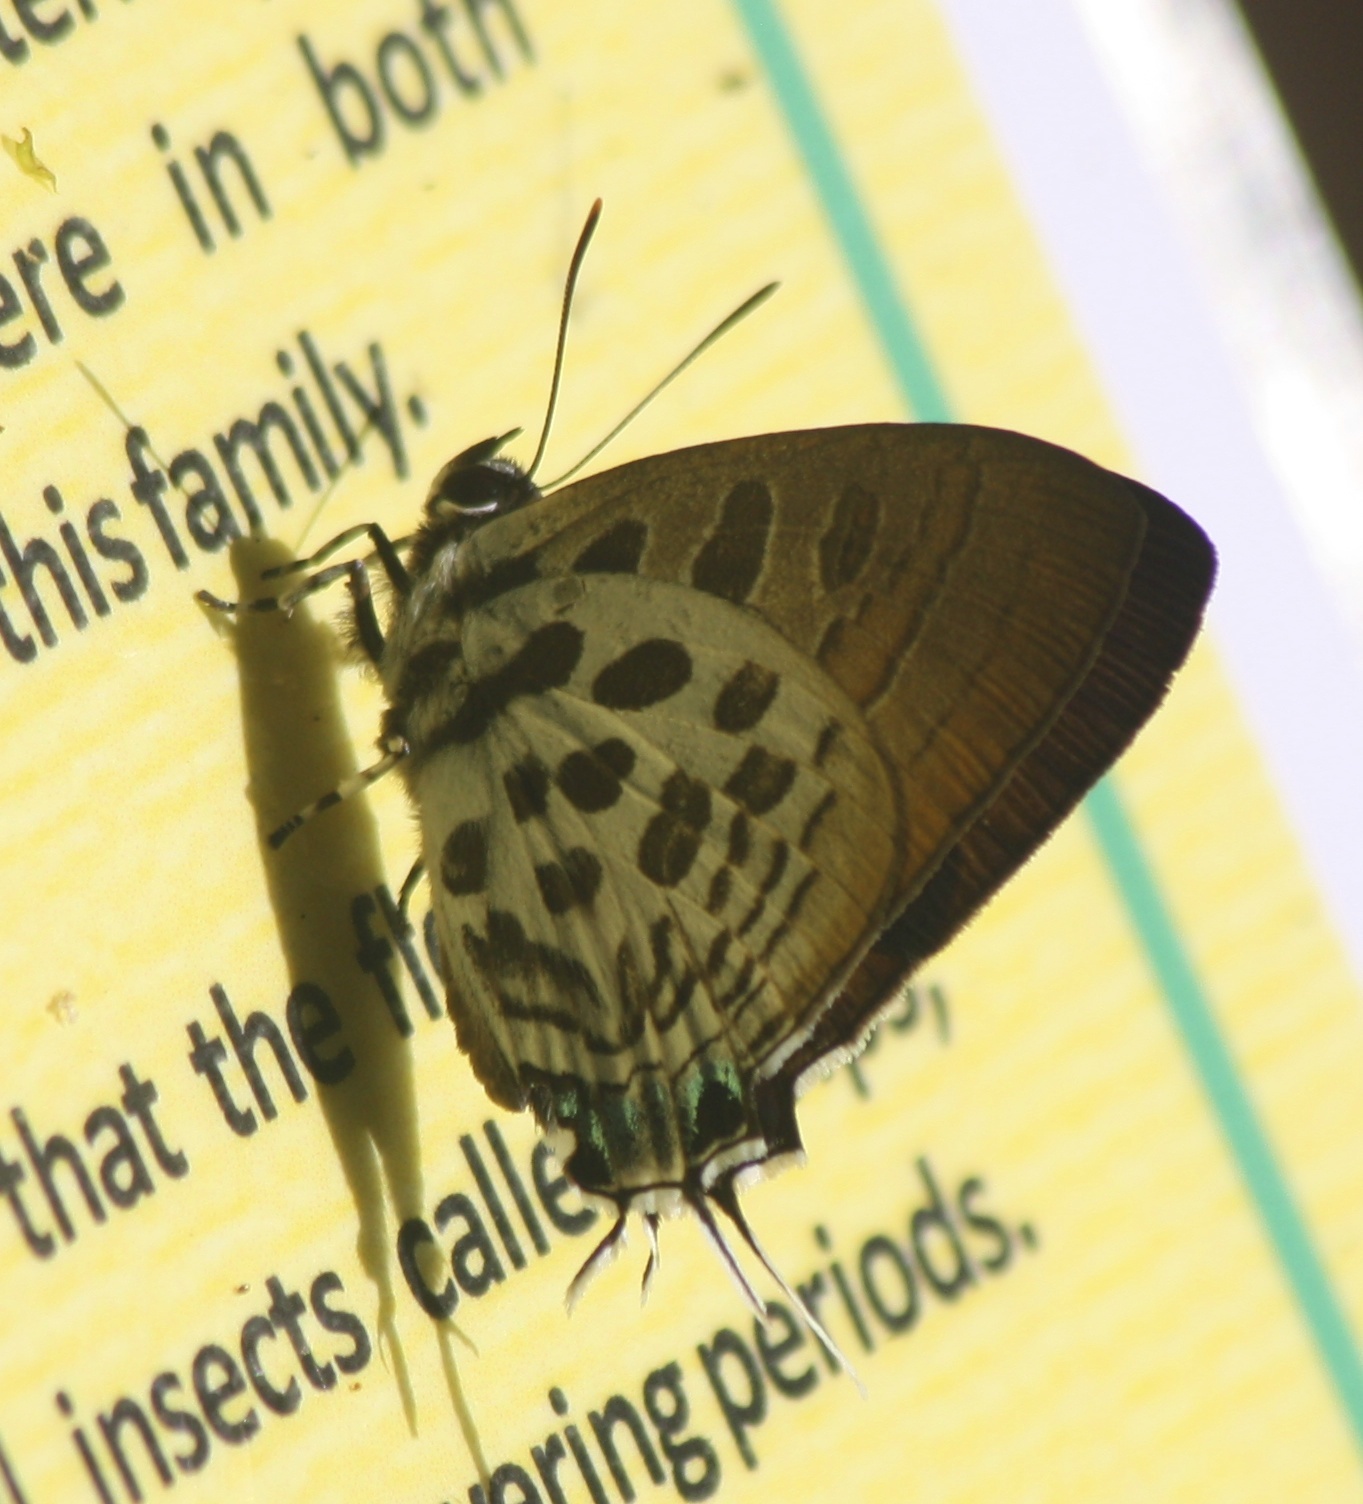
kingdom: Animalia
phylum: Arthropoda
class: Insecta
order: Lepidoptera
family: Lycaenidae
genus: Drupadia
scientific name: Drupadia theda
